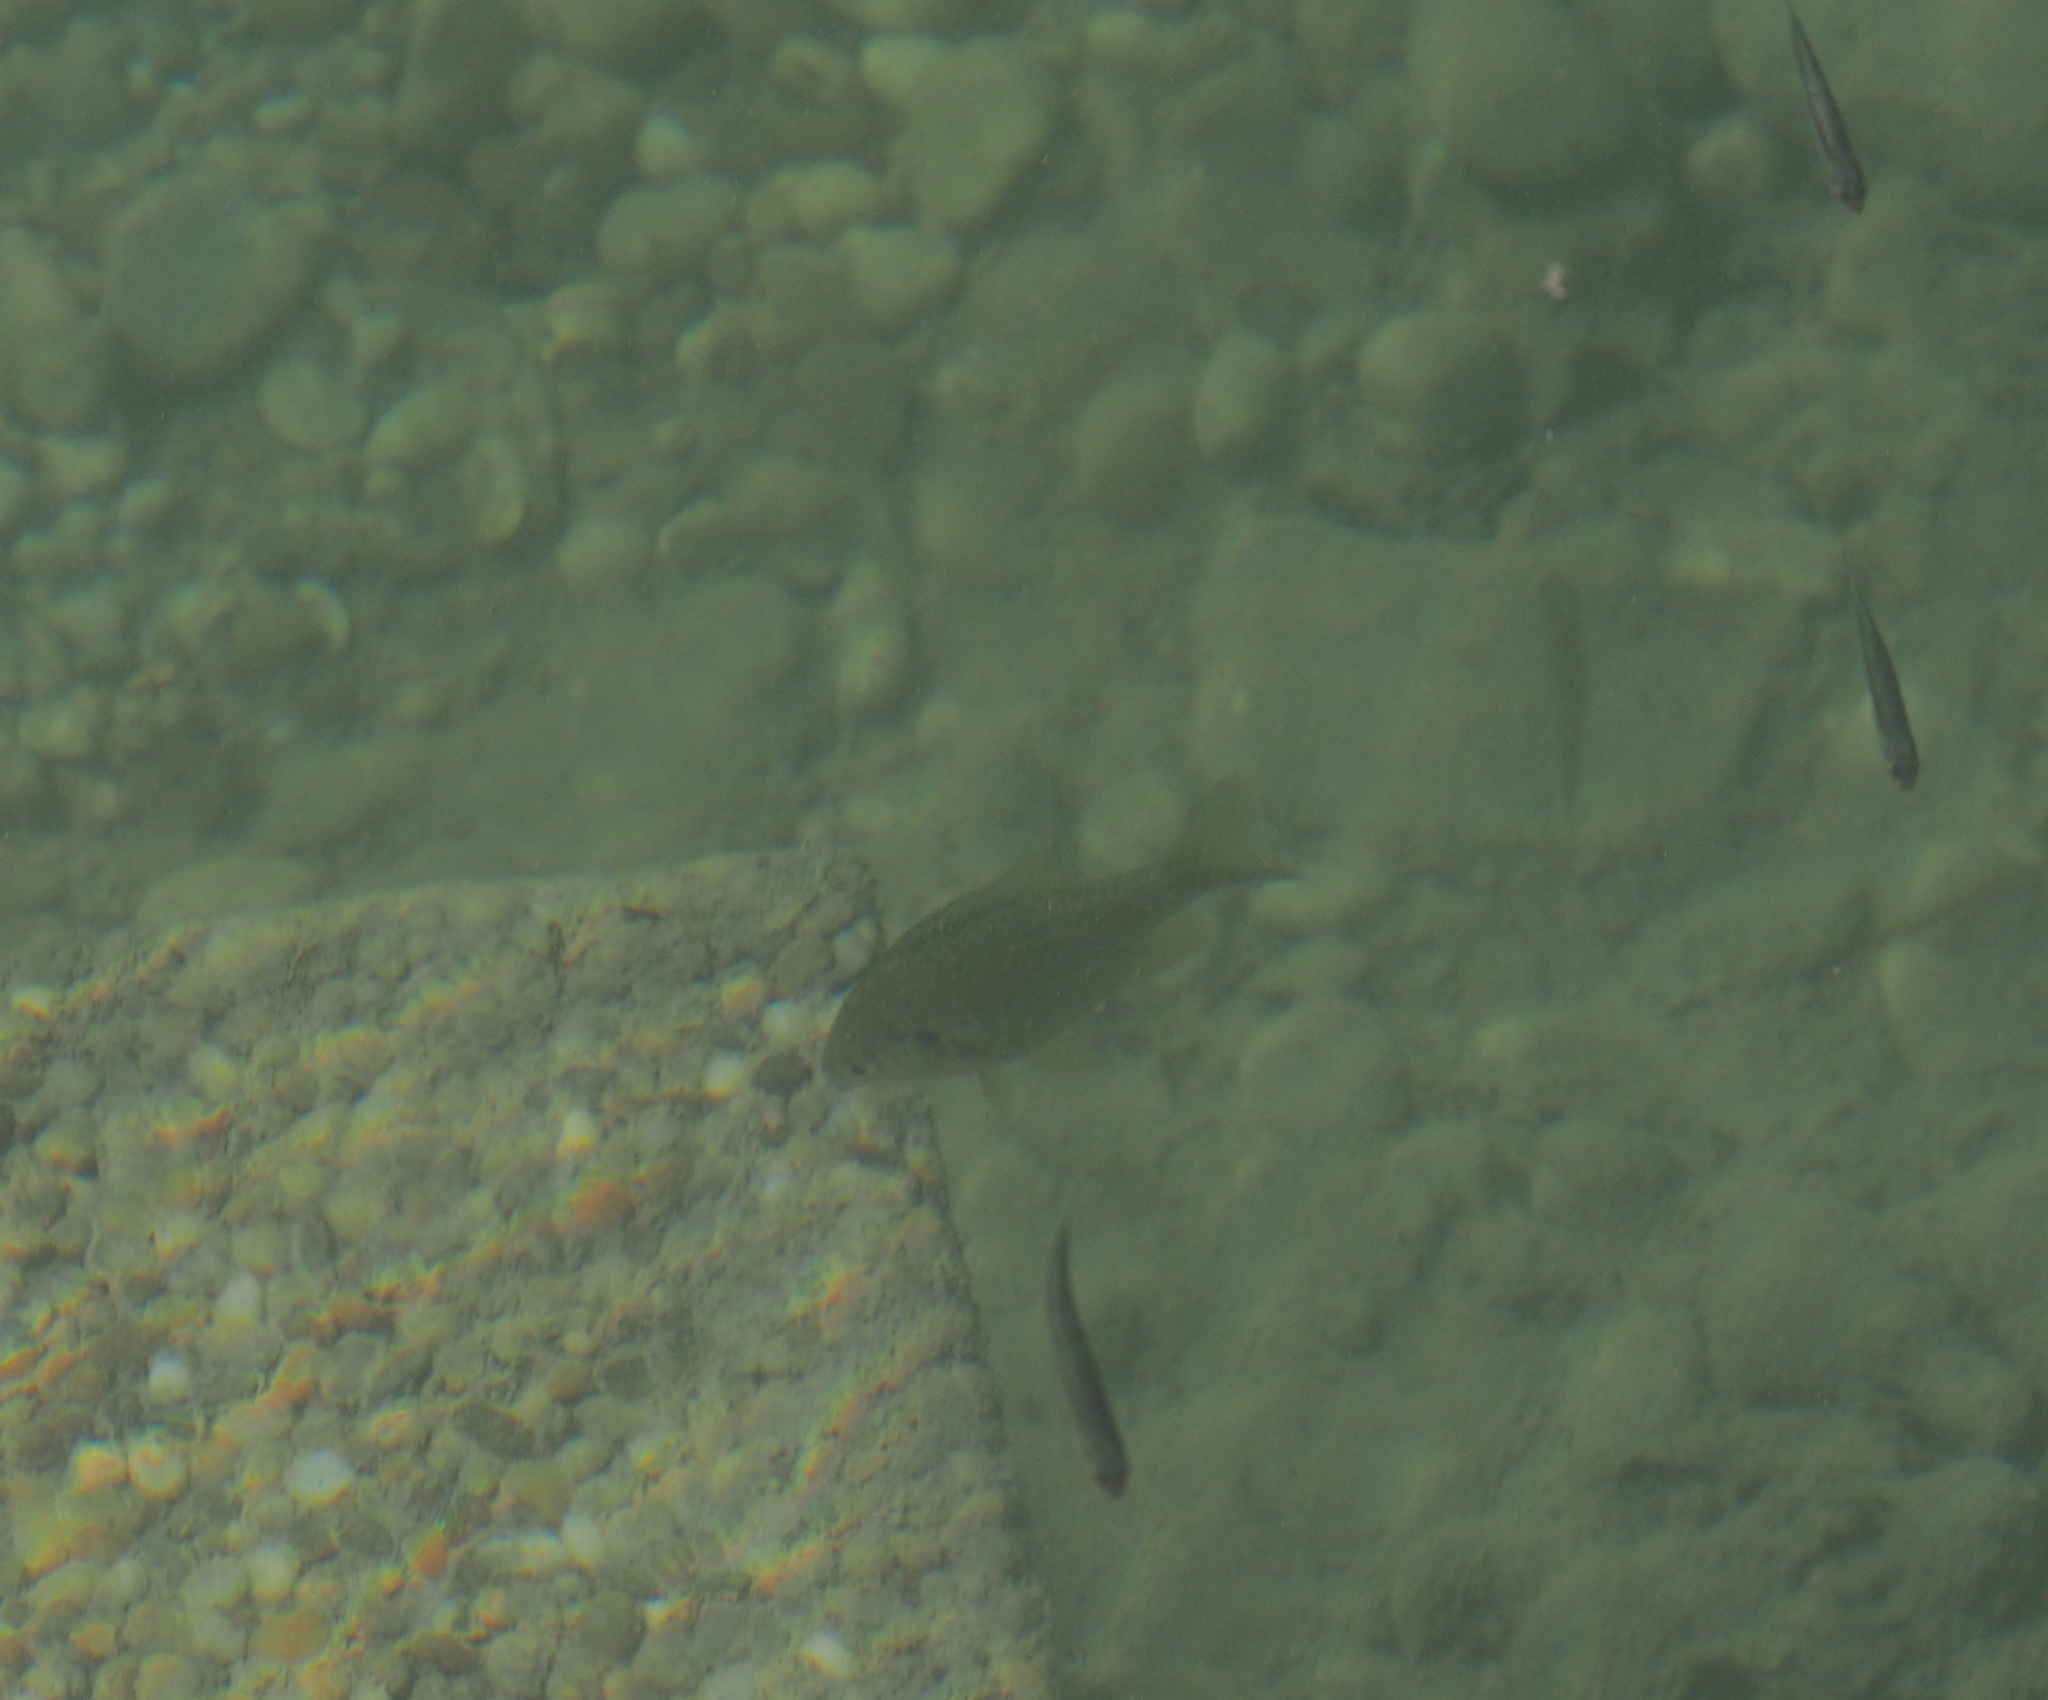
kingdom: Animalia
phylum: Chordata
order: Perciformes
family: Centrarchidae
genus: Lepomis
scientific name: Lepomis gibbosus
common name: Pumpkinseed
